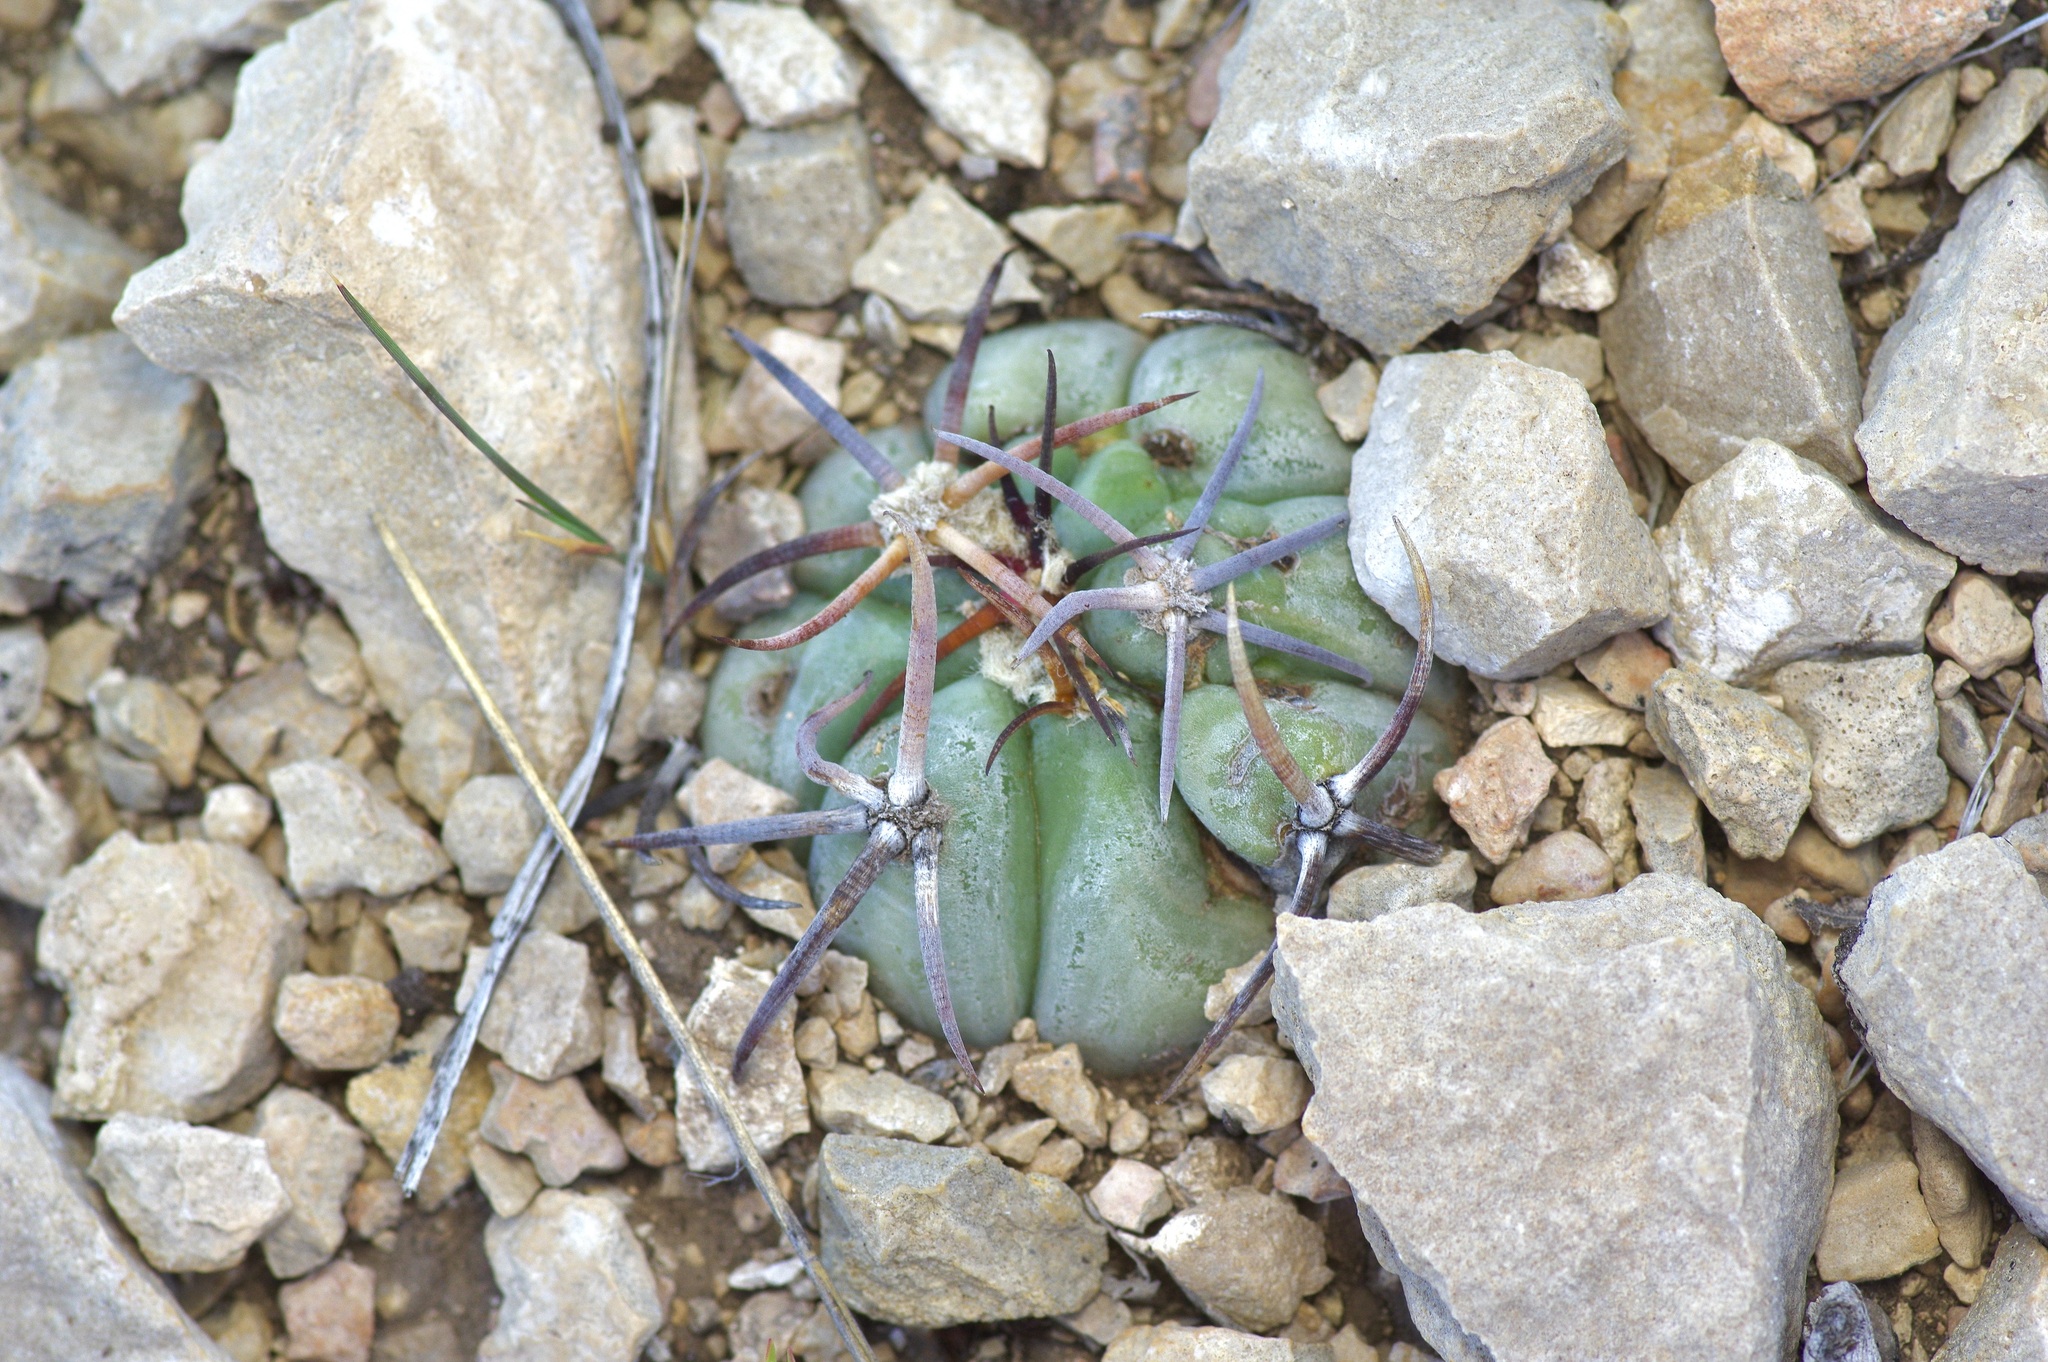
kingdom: Plantae
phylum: Tracheophyta
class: Magnoliopsida
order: Caryophyllales
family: Cactaceae
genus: Echinocactus
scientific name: Echinocactus horizonthalonius
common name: Devilshead
